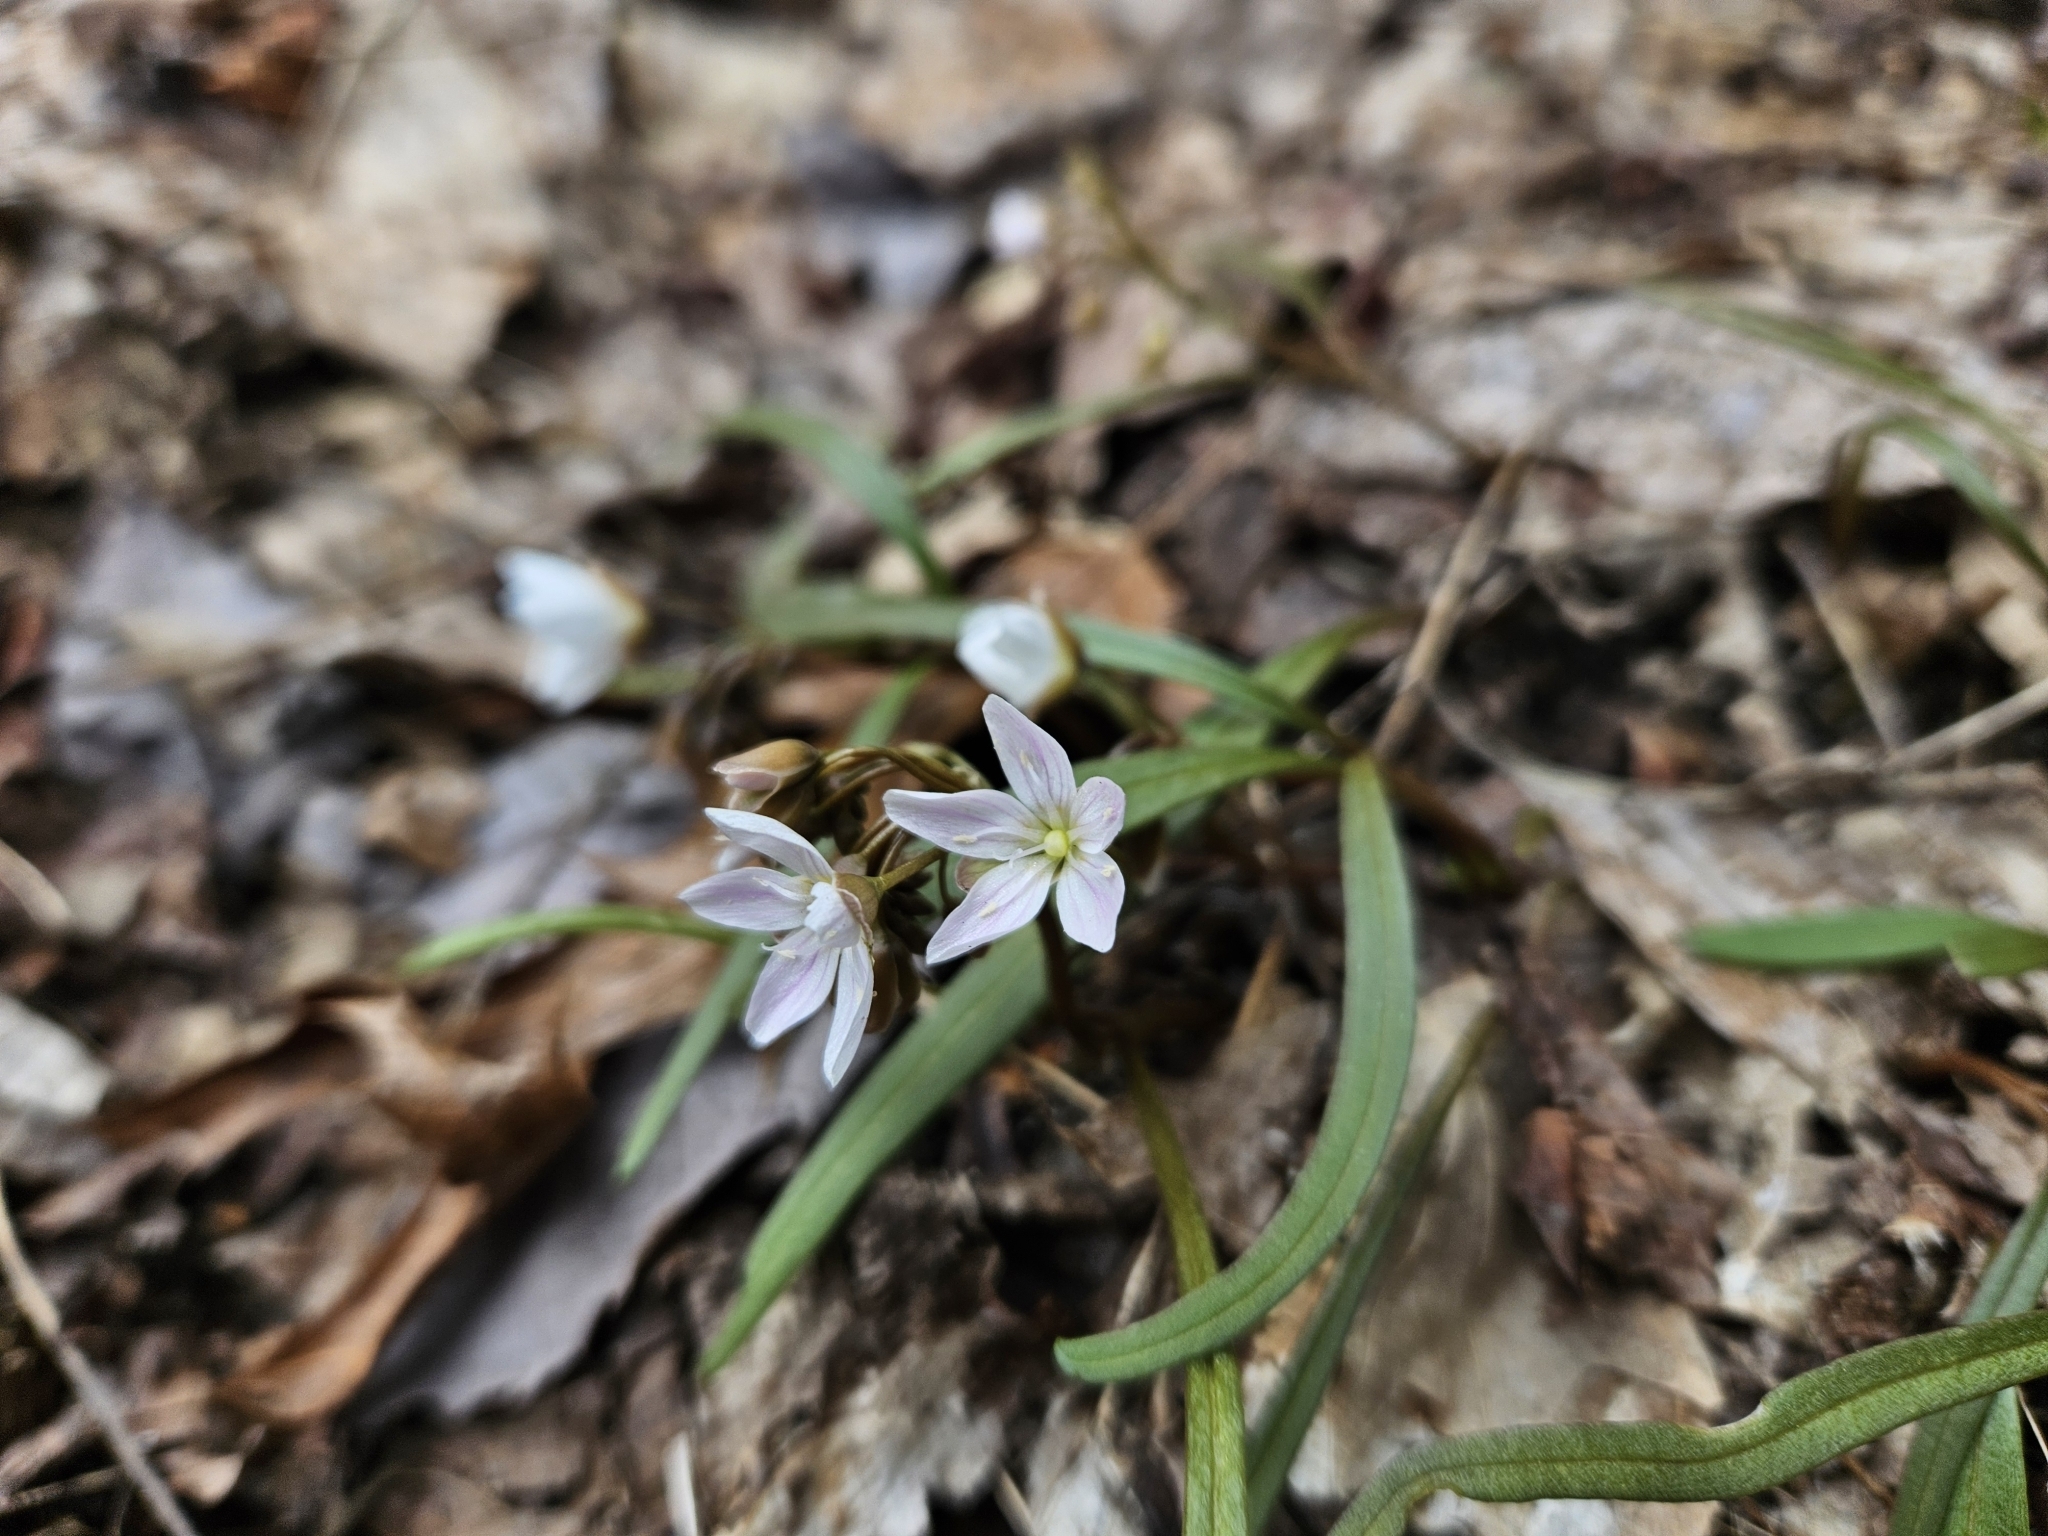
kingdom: Plantae
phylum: Tracheophyta
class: Magnoliopsida
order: Caryophyllales
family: Montiaceae
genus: Claytonia
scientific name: Claytonia virginica
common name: Virginia springbeauty
